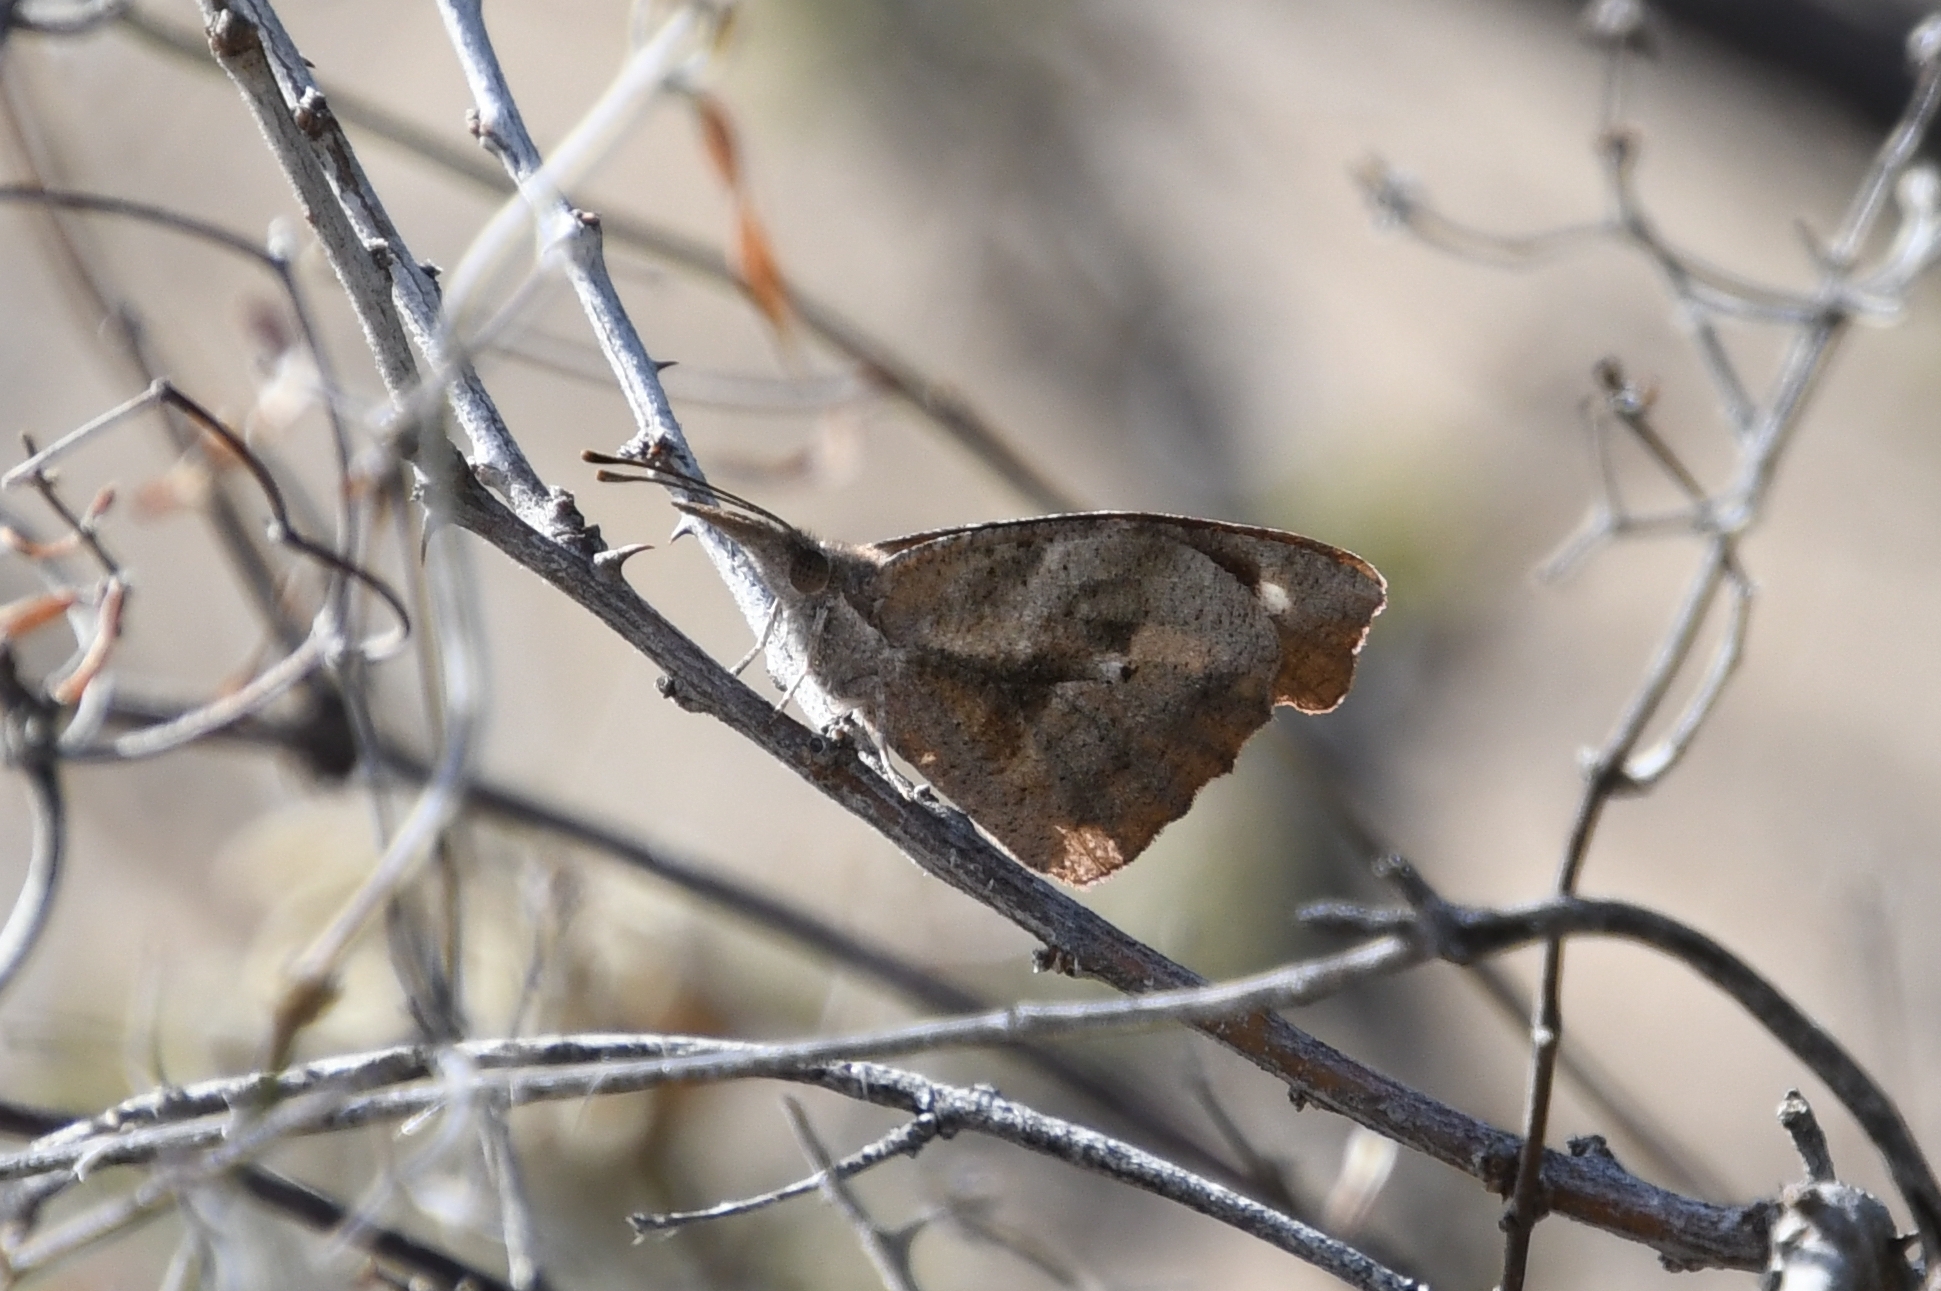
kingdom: Animalia
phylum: Arthropoda
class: Insecta
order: Lepidoptera
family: Nymphalidae
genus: Libytheana
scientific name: Libytheana carinenta
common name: American snout
